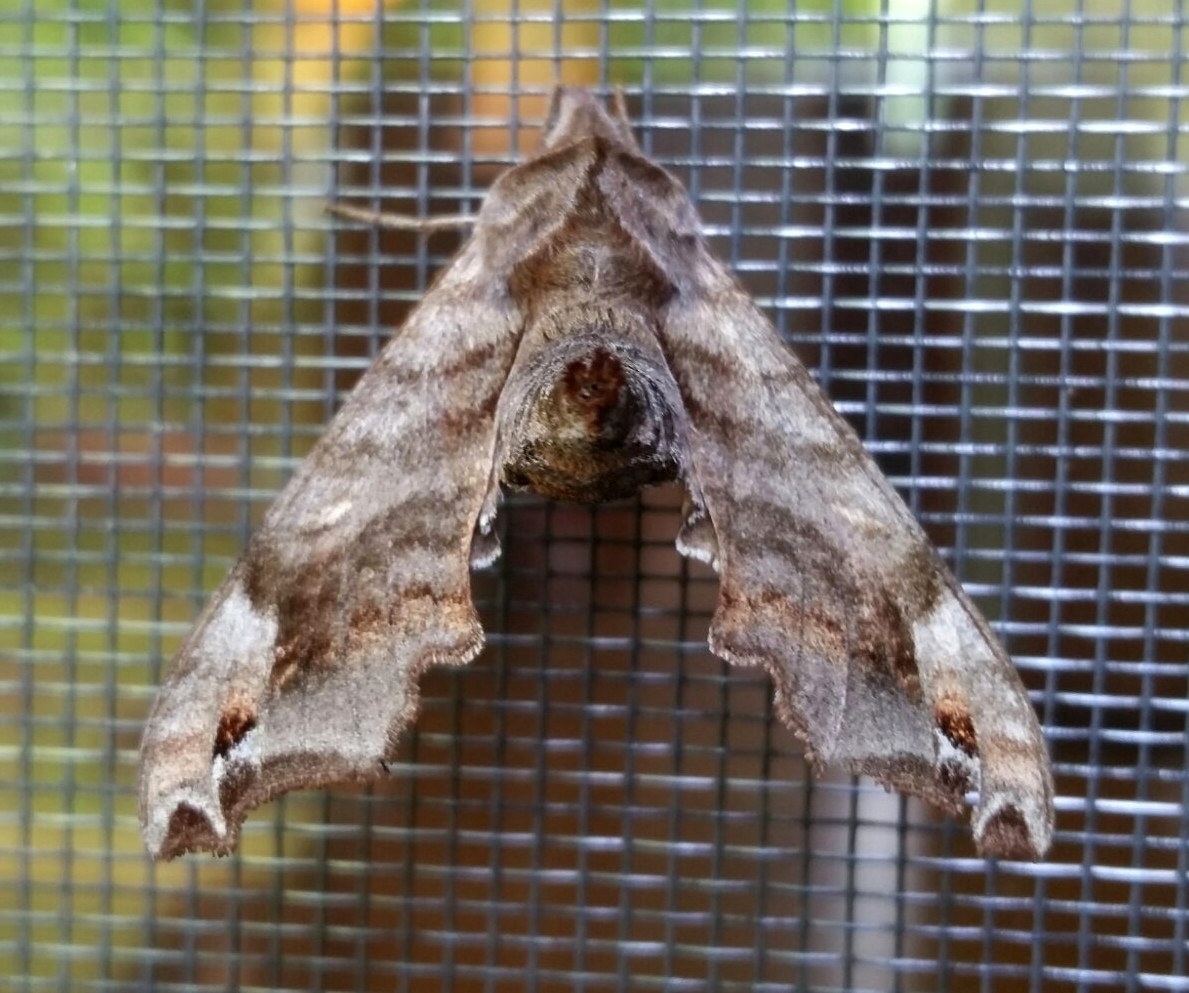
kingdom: Animalia
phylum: Arthropoda
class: Insecta
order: Lepidoptera
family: Sphingidae
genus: Deidamia
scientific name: Deidamia inscriptum
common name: Lettered sphinx
